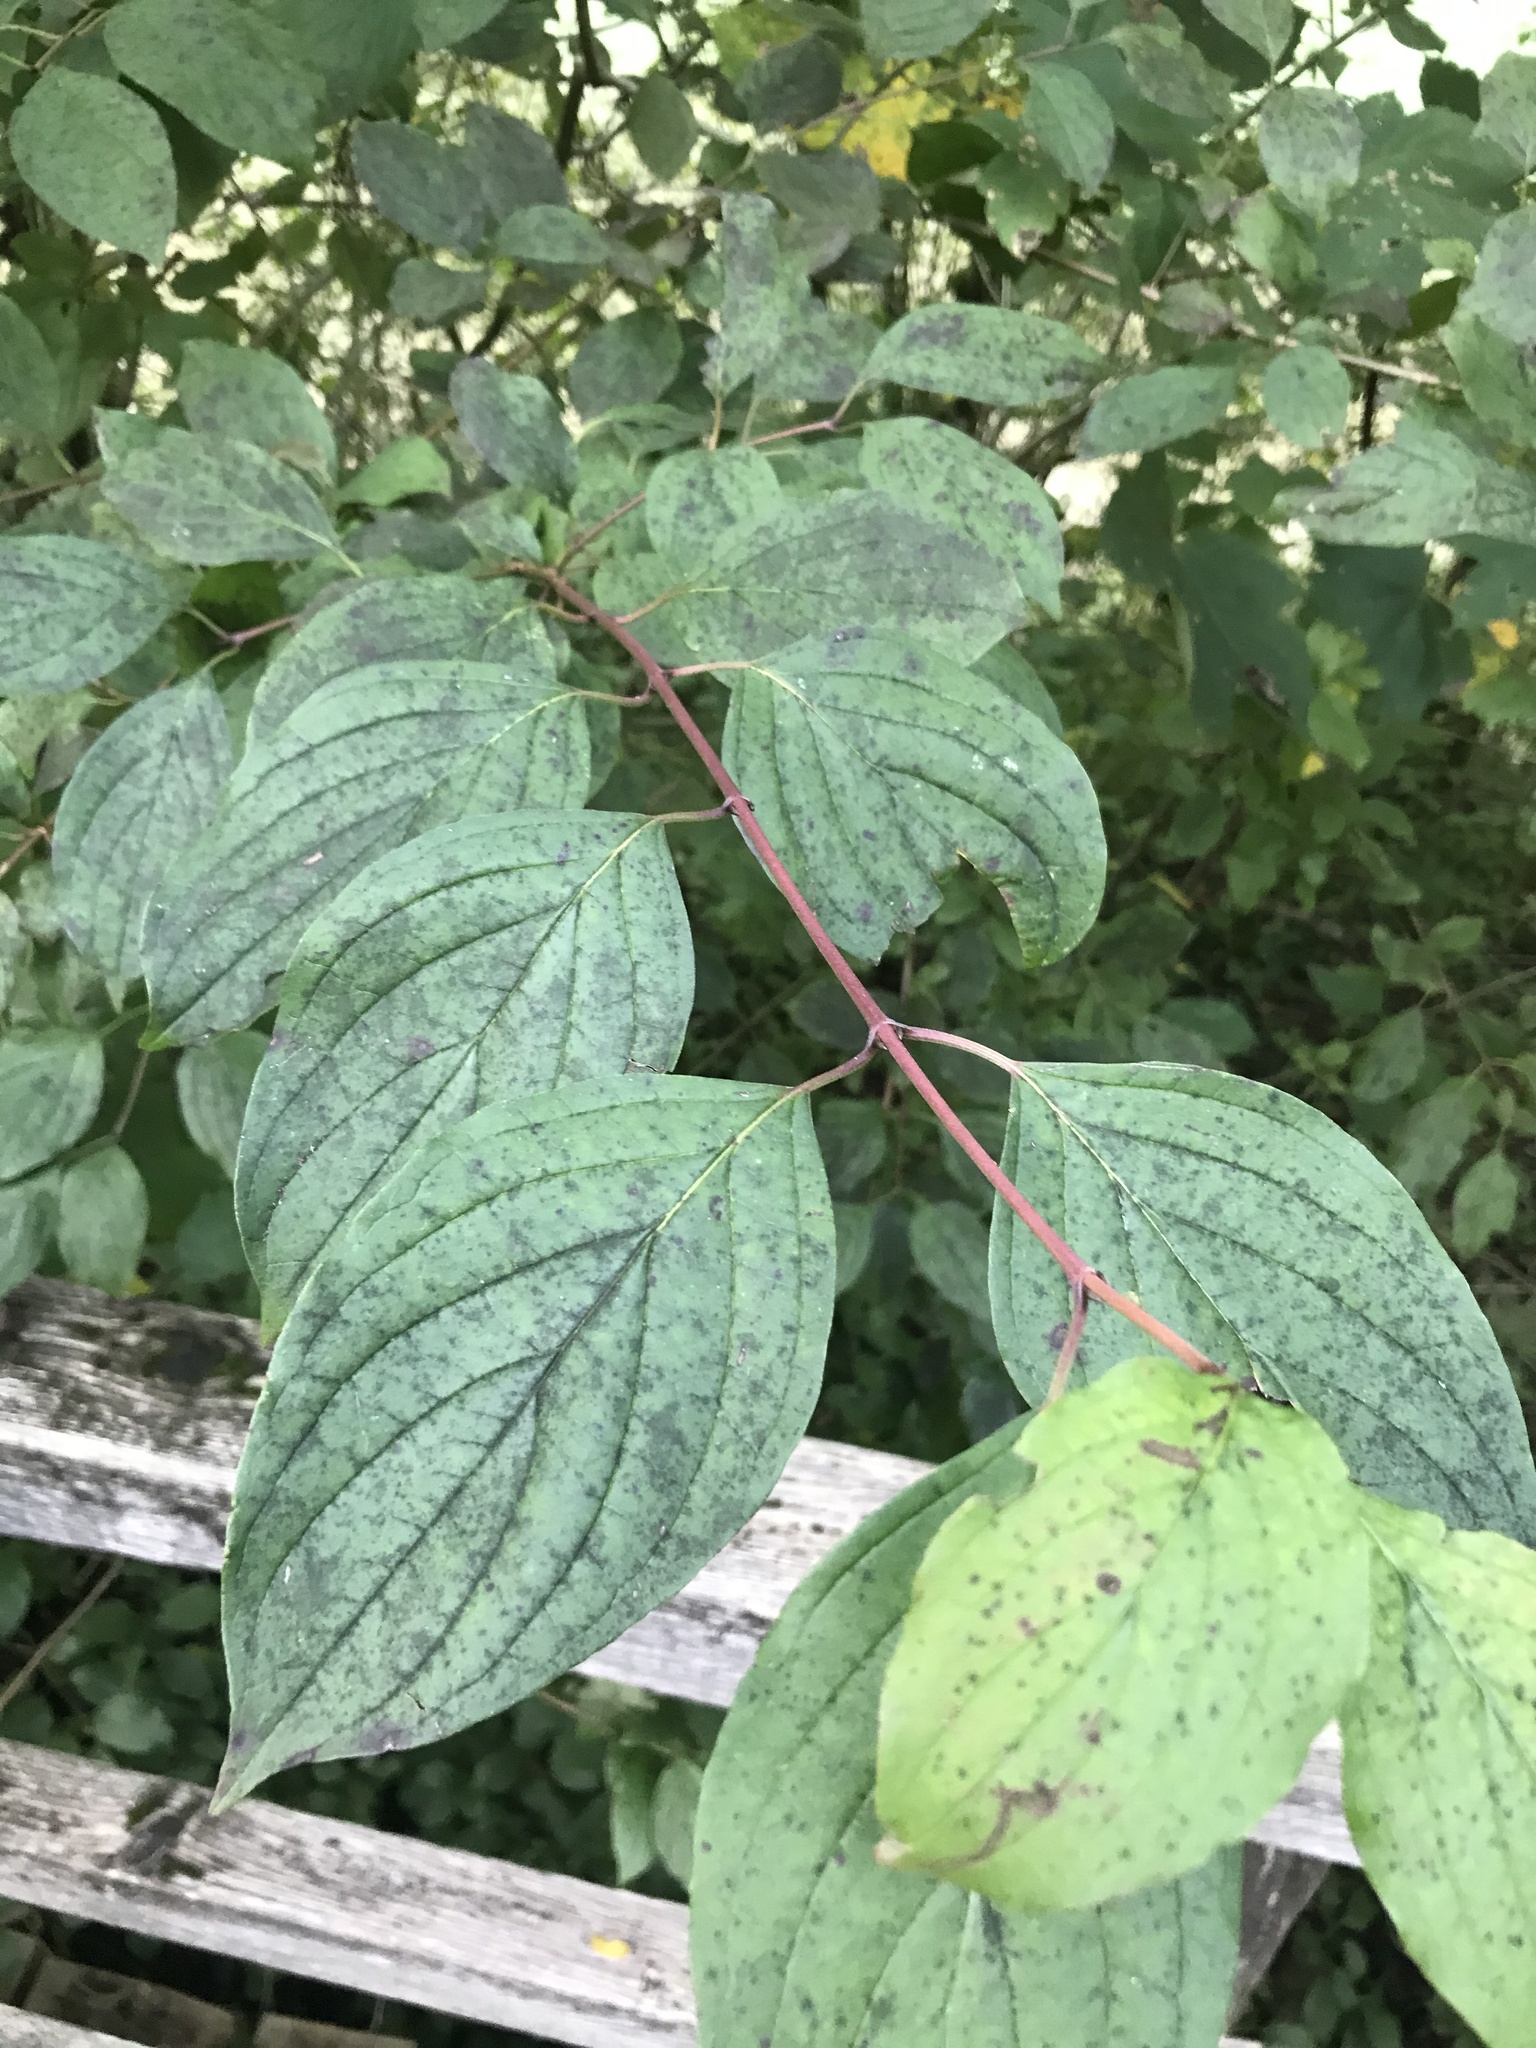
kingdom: Plantae
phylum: Tracheophyta
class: Magnoliopsida
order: Cornales
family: Cornaceae
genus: Cornus
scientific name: Cornus sanguinea
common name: Dogwood
